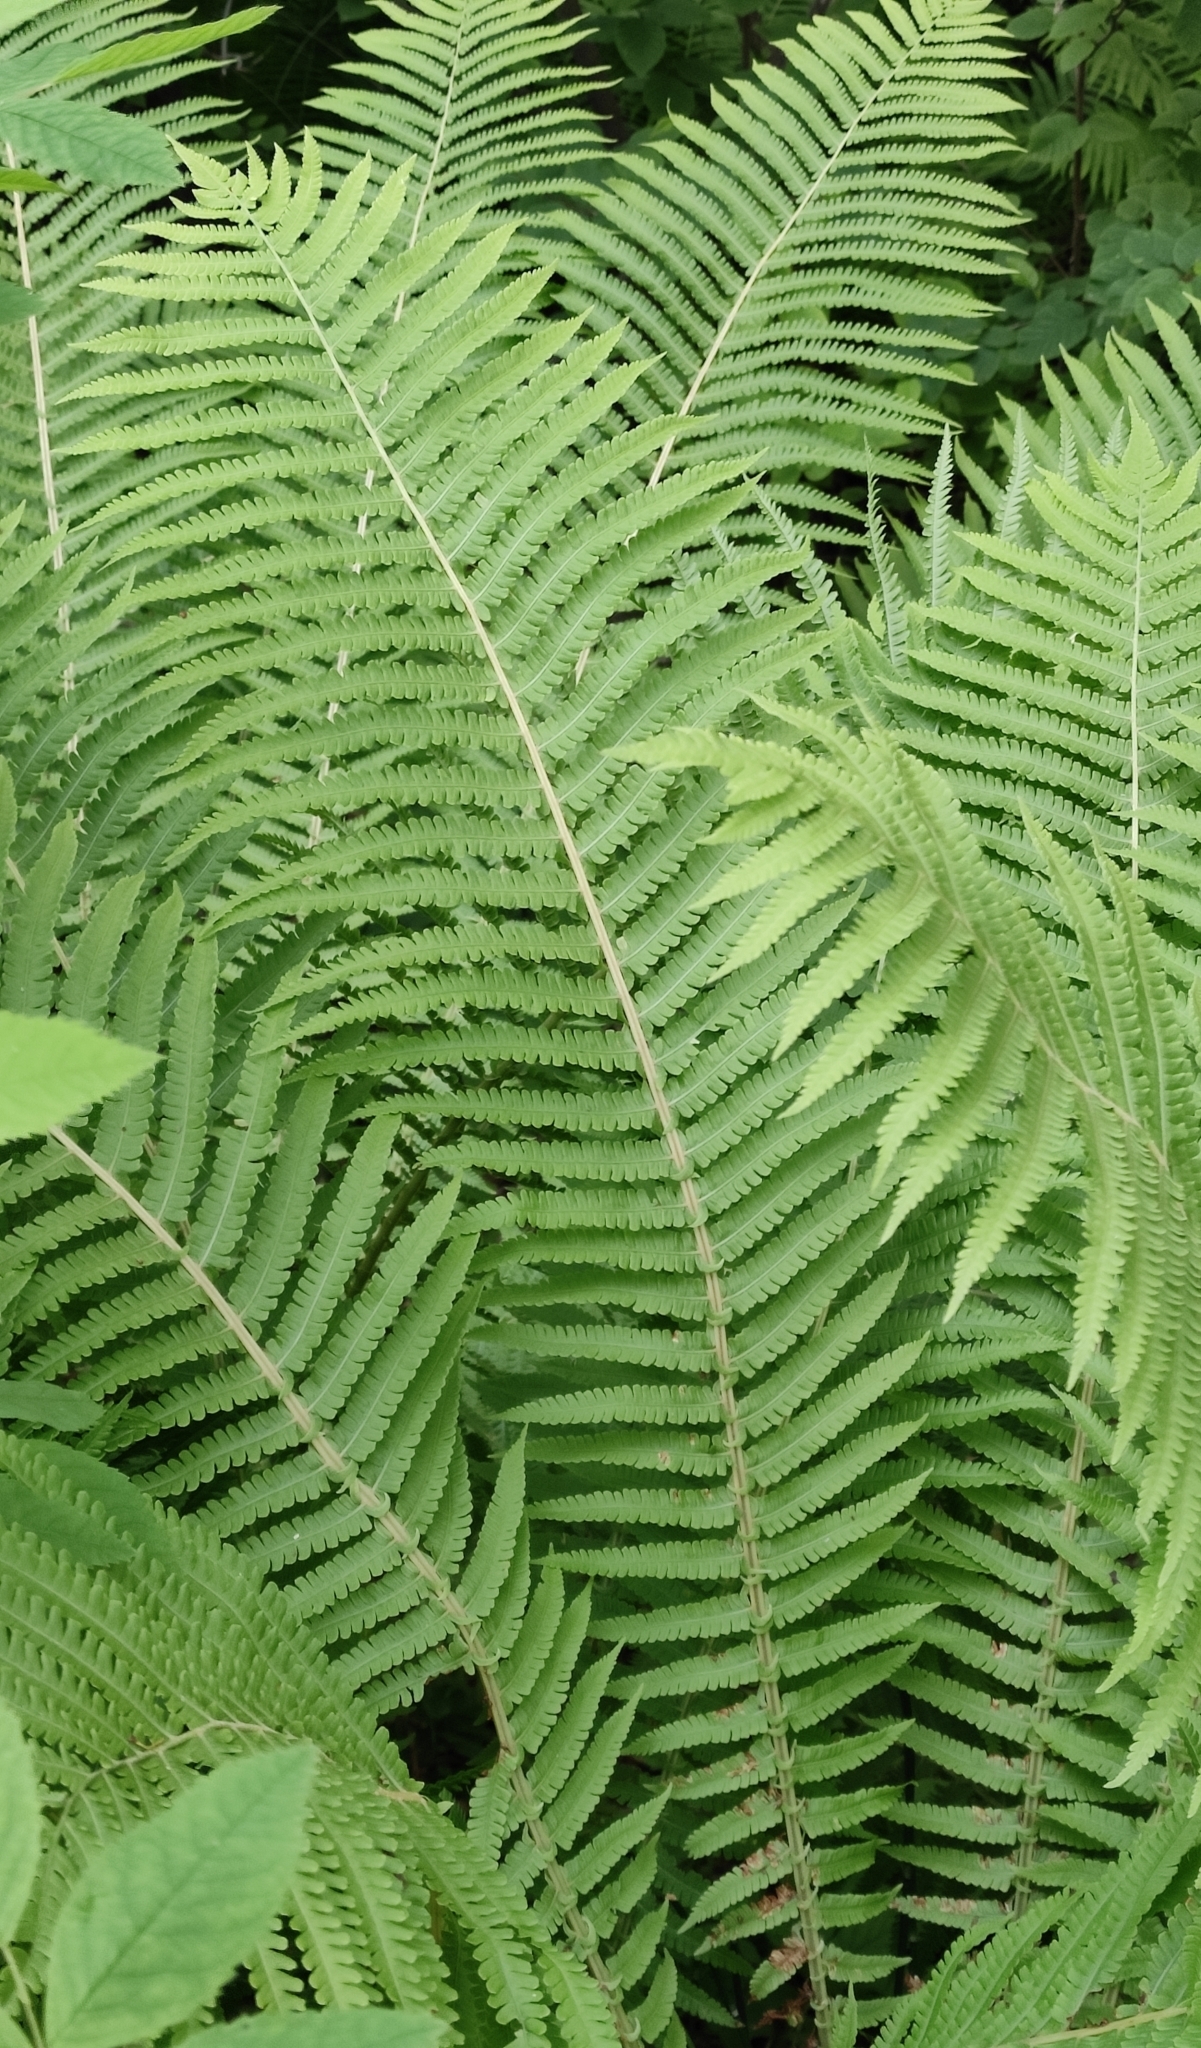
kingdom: Plantae
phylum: Tracheophyta
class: Polypodiopsida
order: Polypodiales
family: Onocleaceae
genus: Matteuccia
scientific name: Matteuccia struthiopteris
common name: Ostrich fern
